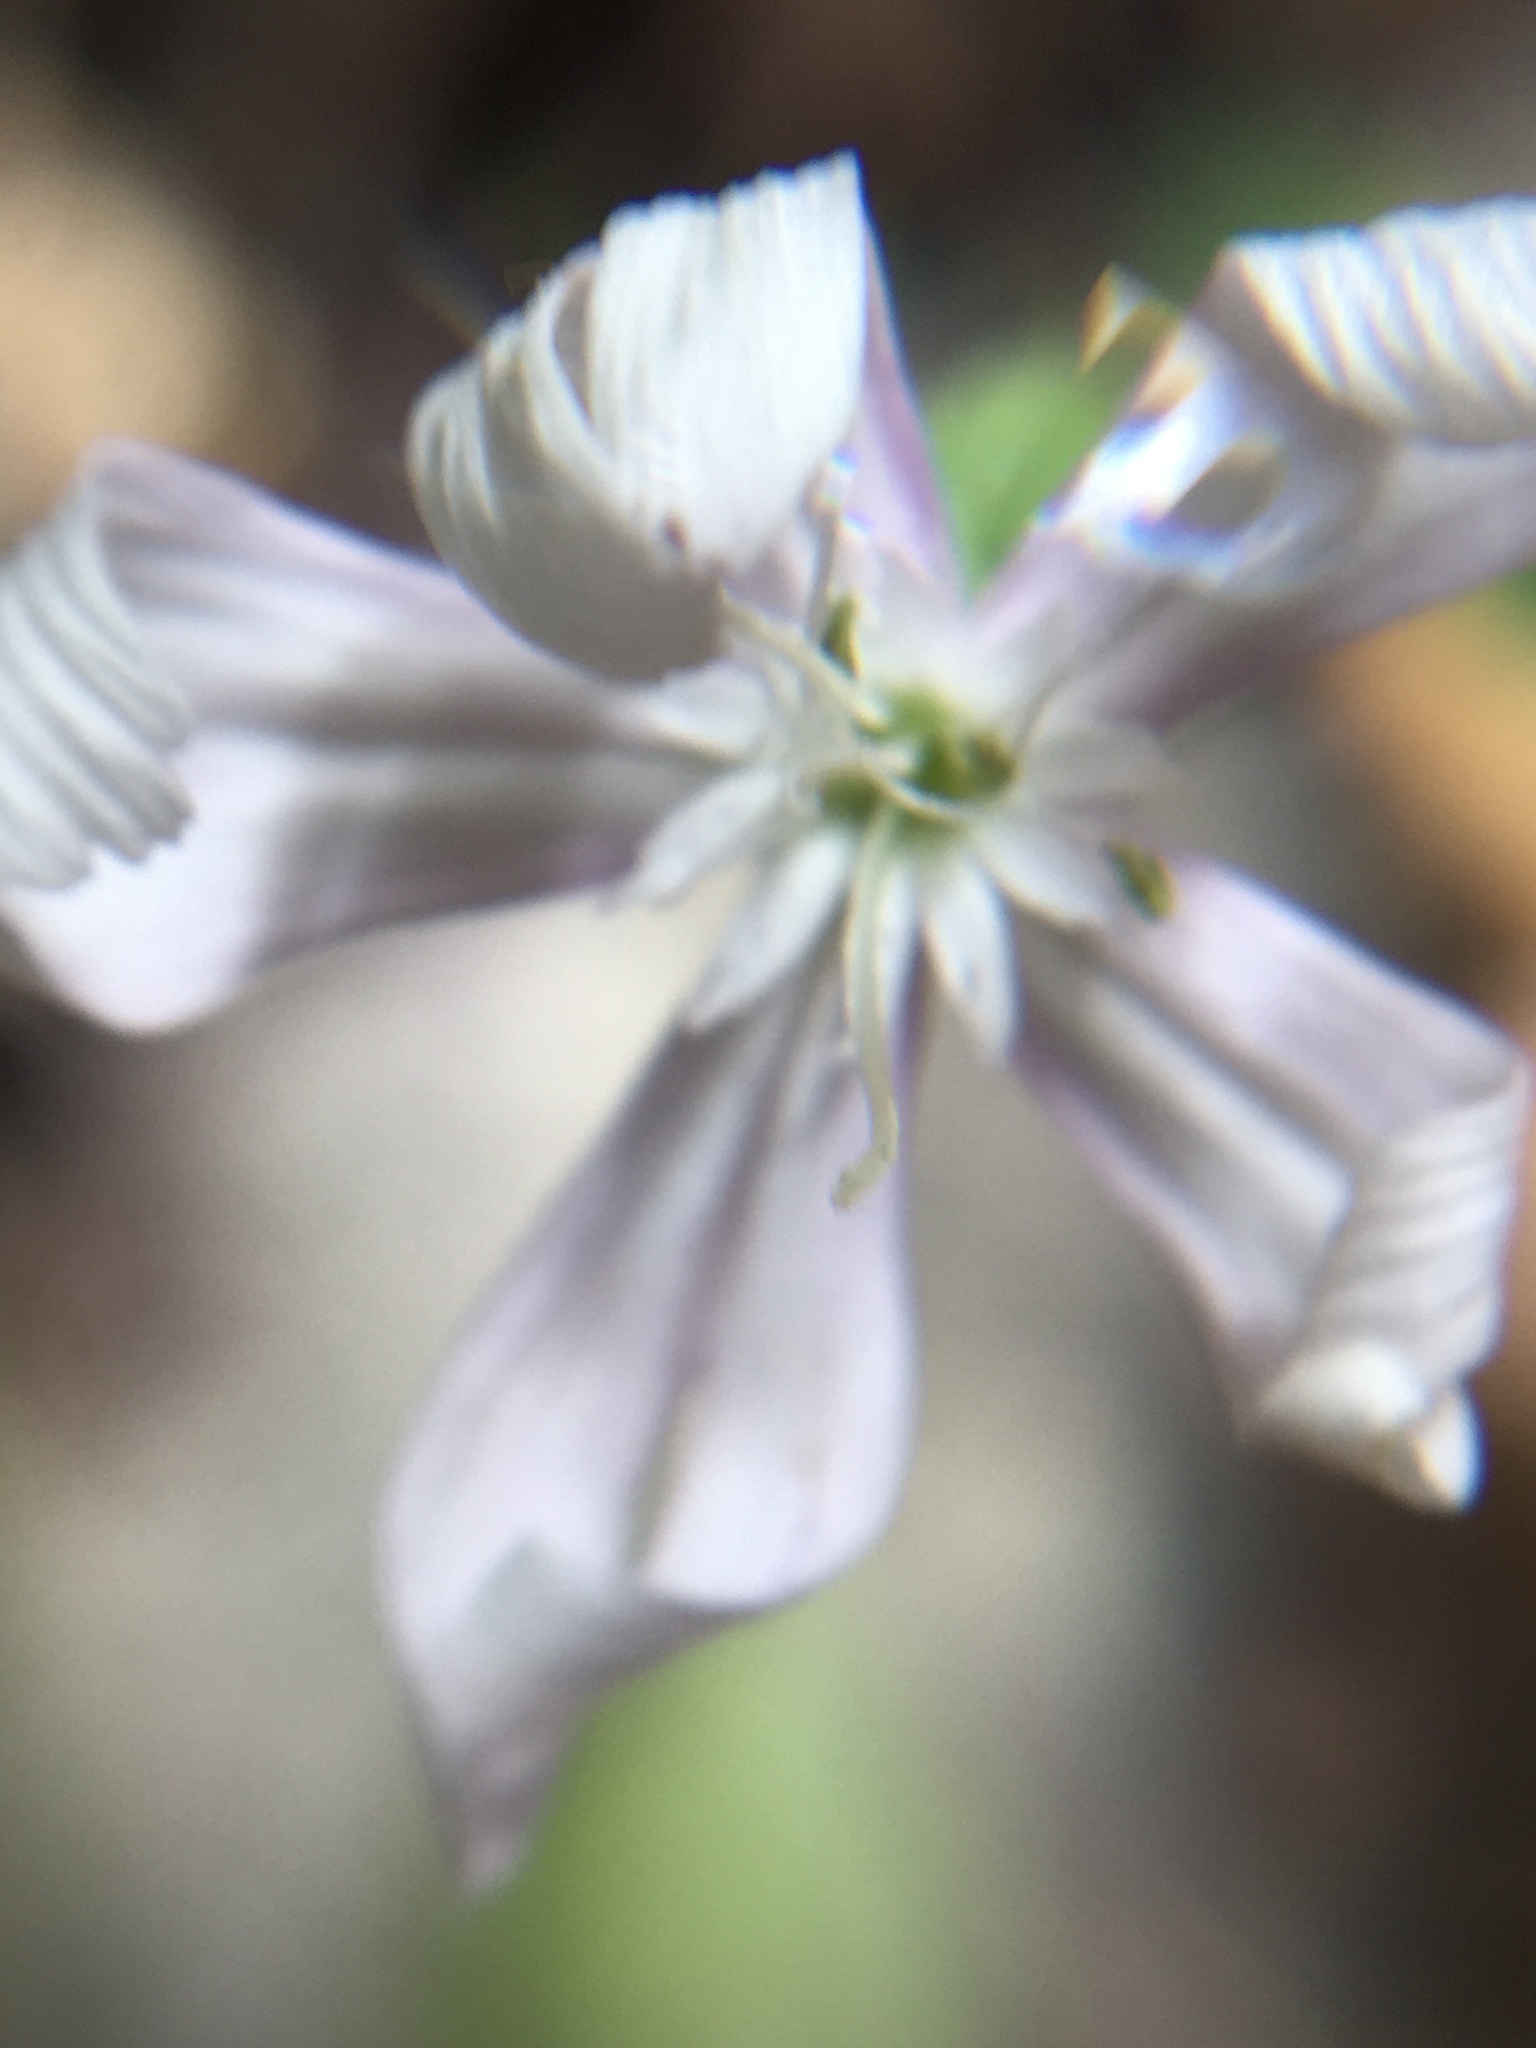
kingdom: Plantae
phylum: Tracheophyta
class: Magnoliopsida
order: Caryophyllales
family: Caryophyllaceae
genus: Silene
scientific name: Silene undulata
